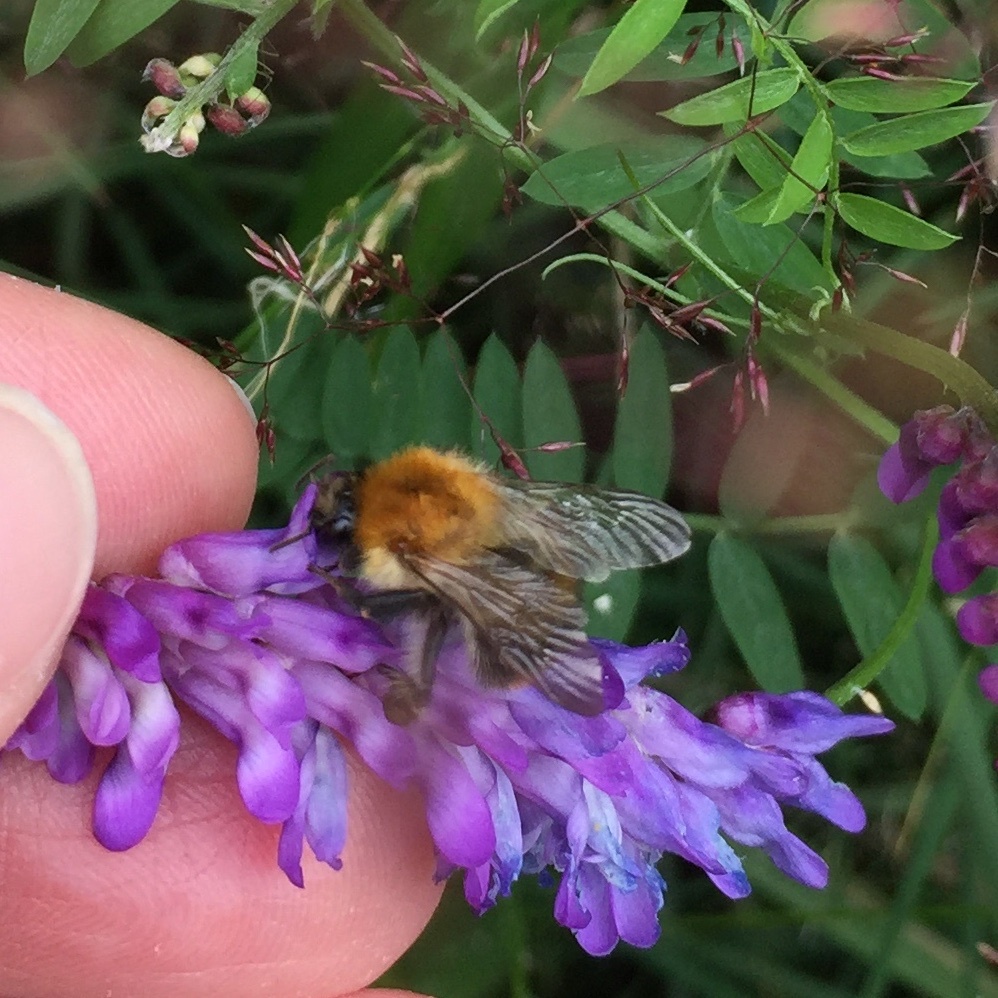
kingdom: Animalia
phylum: Arthropoda
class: Insecta
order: Hymenoptera
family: Apidae
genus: Bombus
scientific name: Bombus pascuorum
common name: Common carder bee
